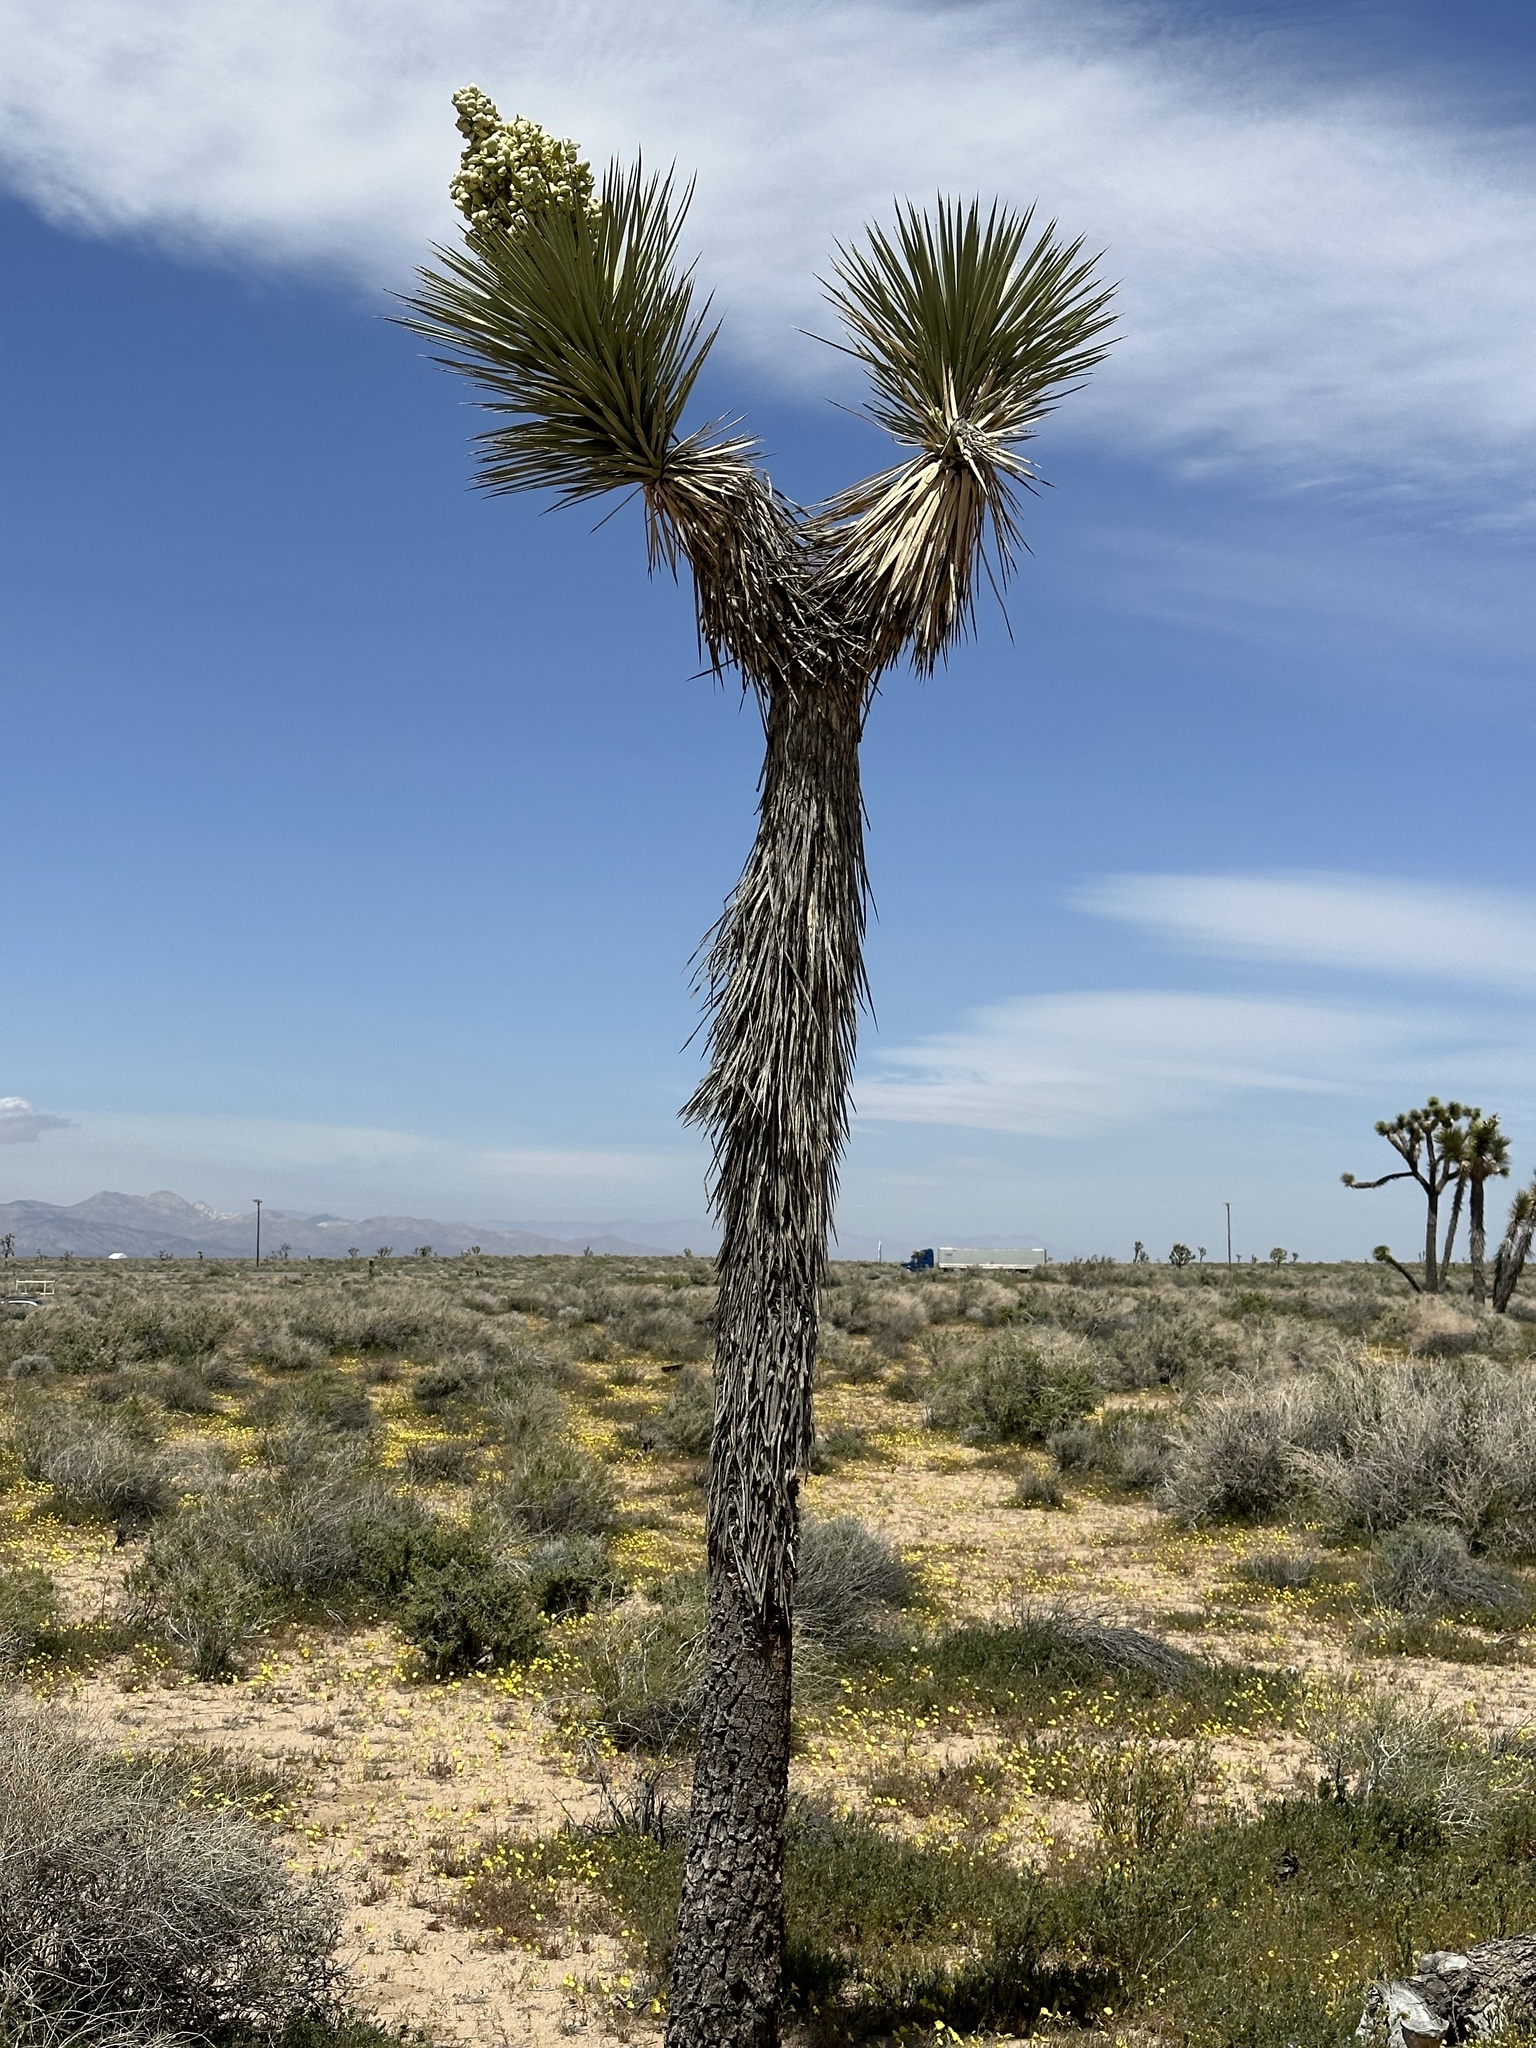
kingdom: Plantae
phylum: Tracheophyta
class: Liliopsida
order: Asparagales
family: Asparagaceae
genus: Yucca
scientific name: Yucca brevifolia
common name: Joshua tree
